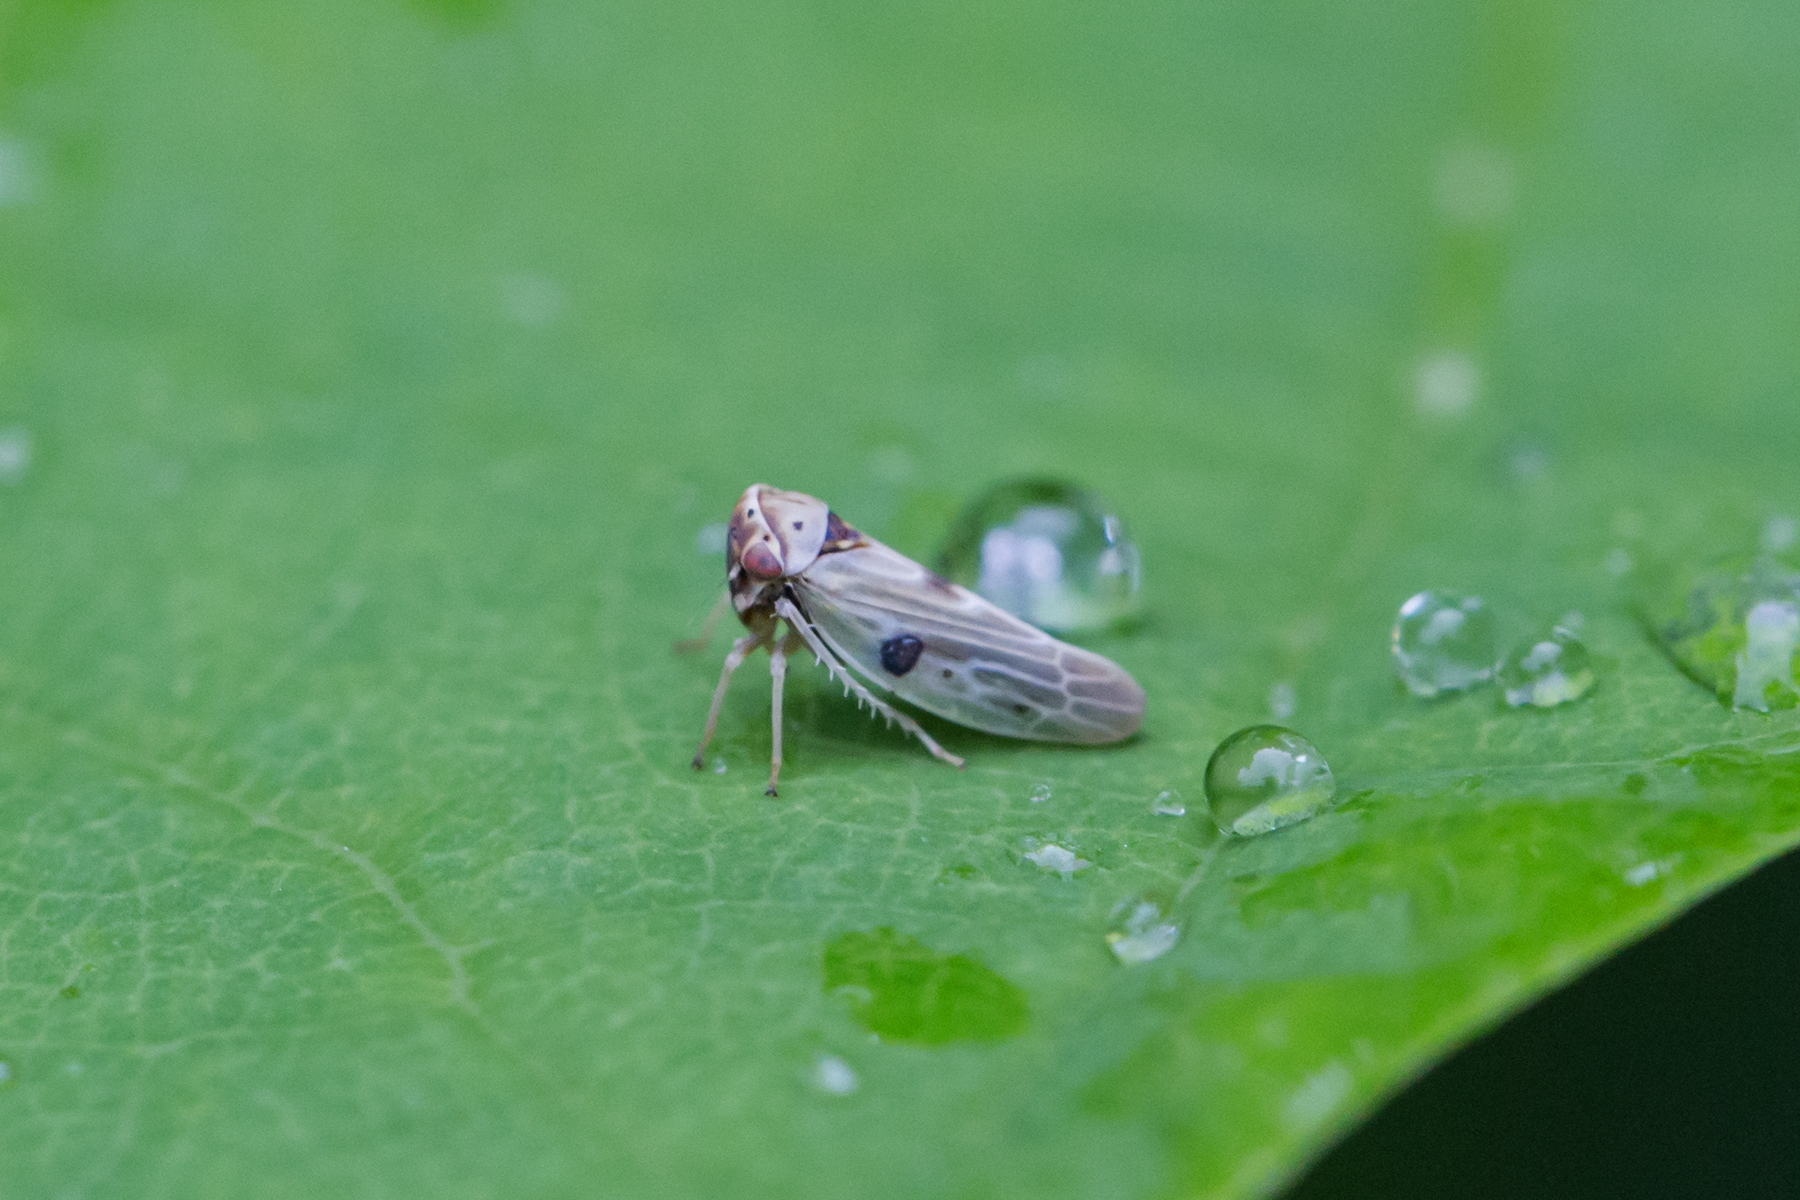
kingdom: Animalia
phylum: Arthropoda
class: Insecta
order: Hemiptera
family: Cicadellidae
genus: Agalliopsis
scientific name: Agalliopsis ancistra
